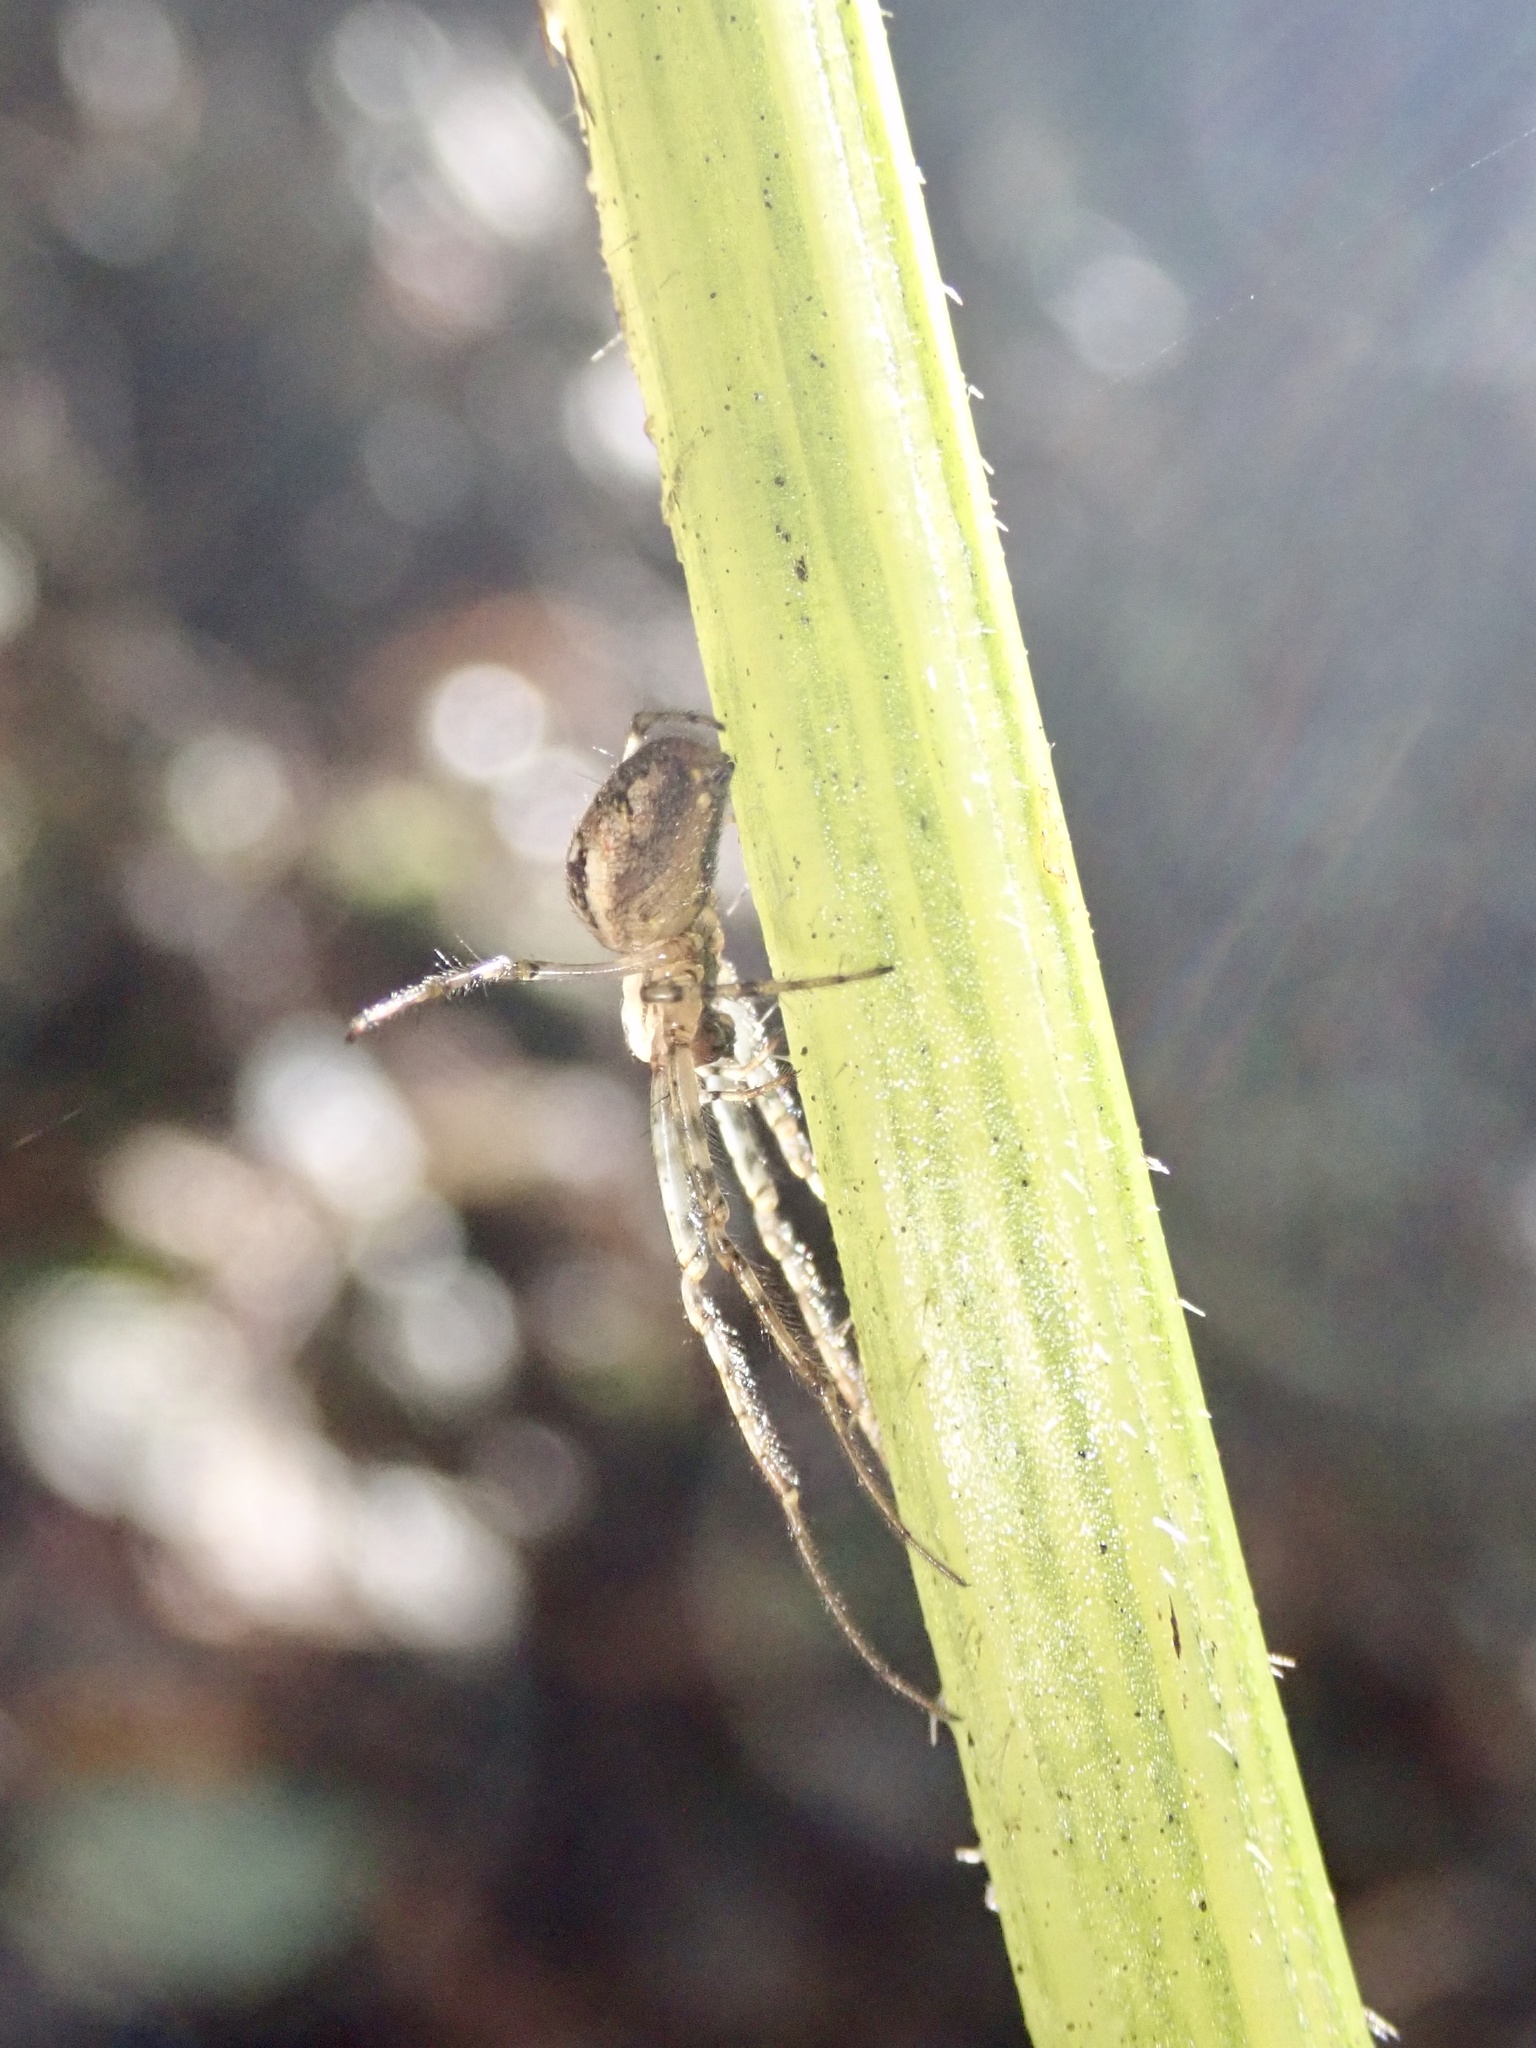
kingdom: Animalia
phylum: Arthropoda
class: Arachnida
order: Araneae
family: Tetragnathidae
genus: Metellina
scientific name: Metellina segmentata
